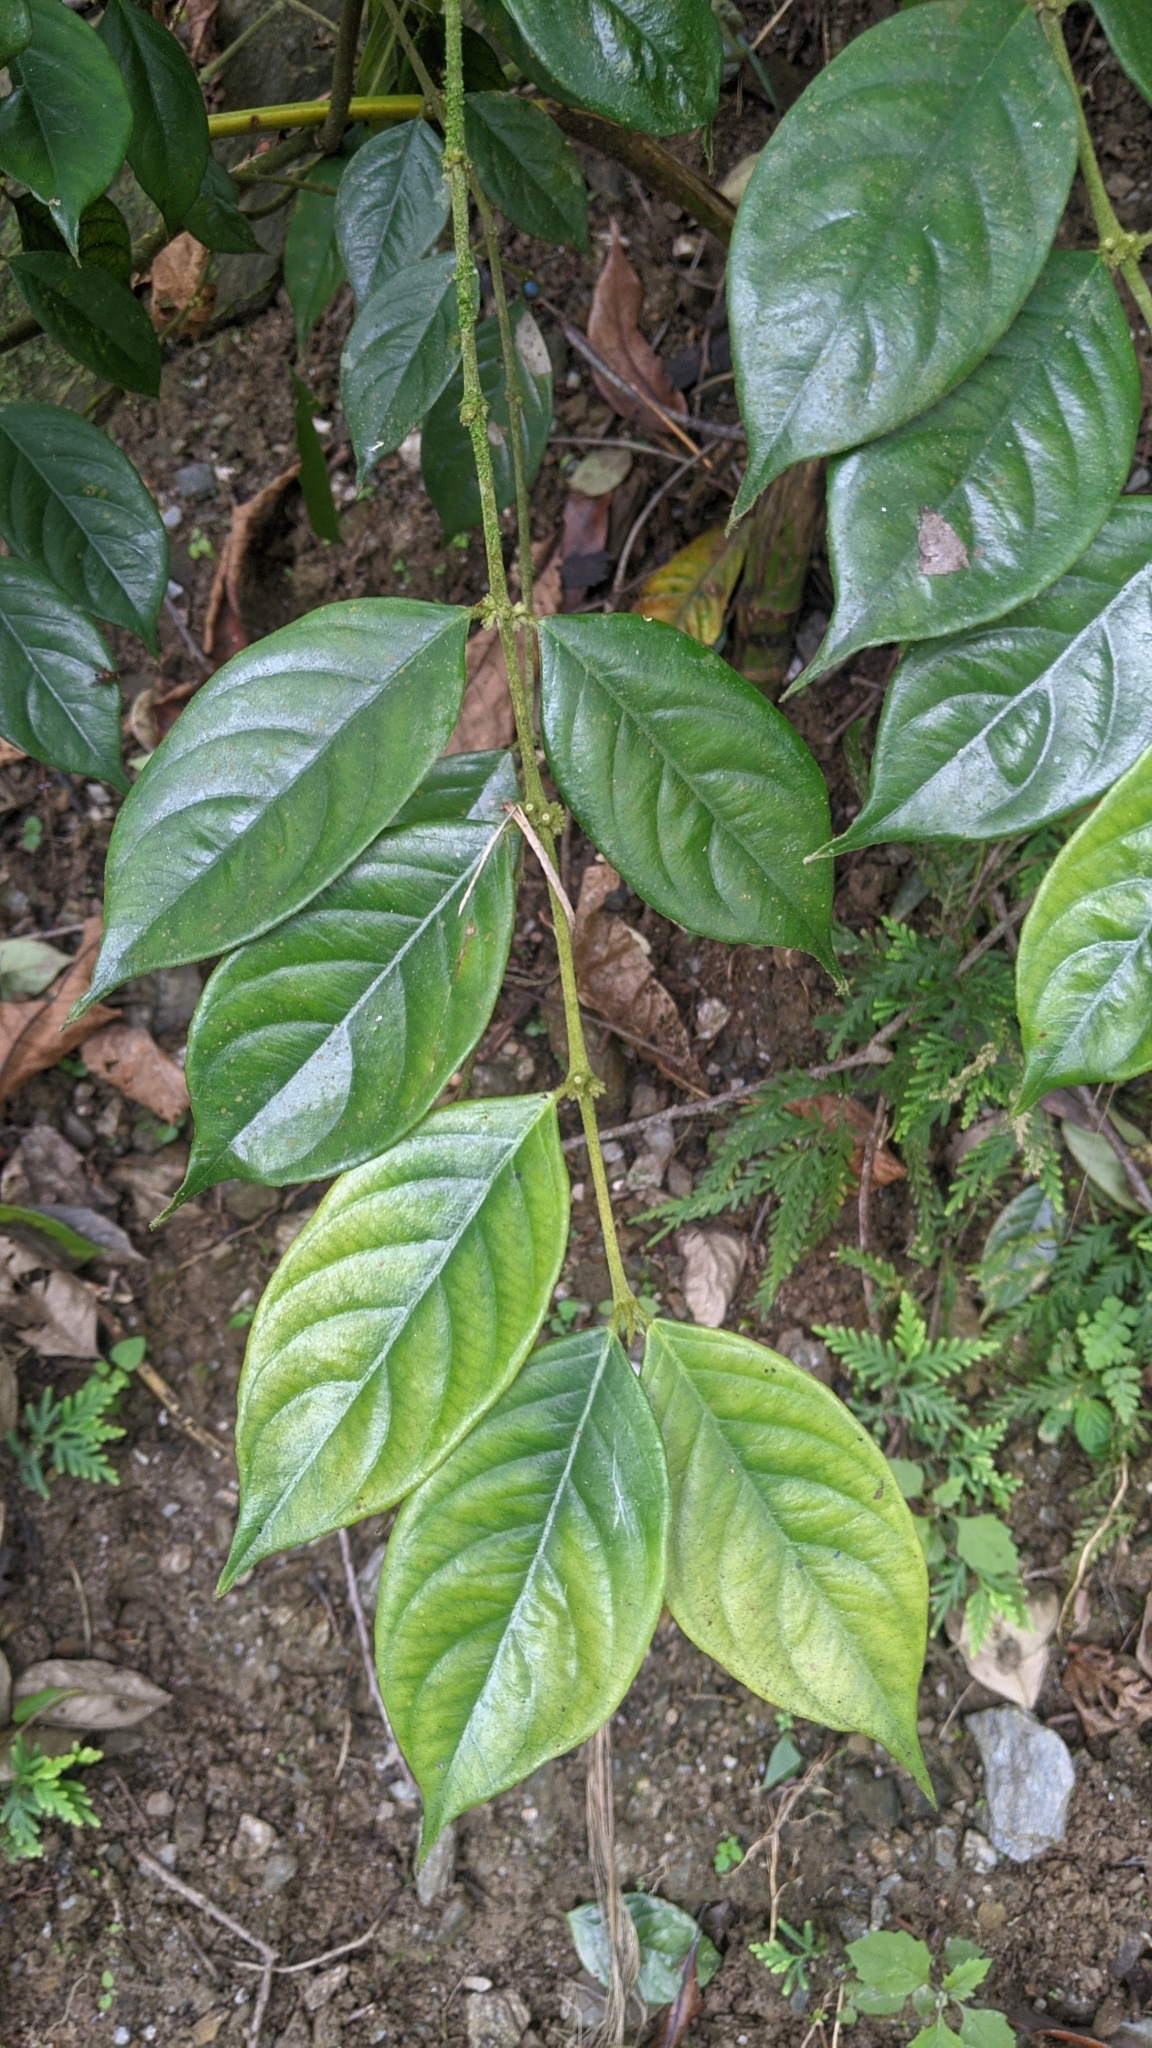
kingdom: Plantae
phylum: Tracheophyta
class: Magnoliopsida
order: Gentianales
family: Rubiaceae
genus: Lasianthus
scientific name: Lasianthus hispidulus
